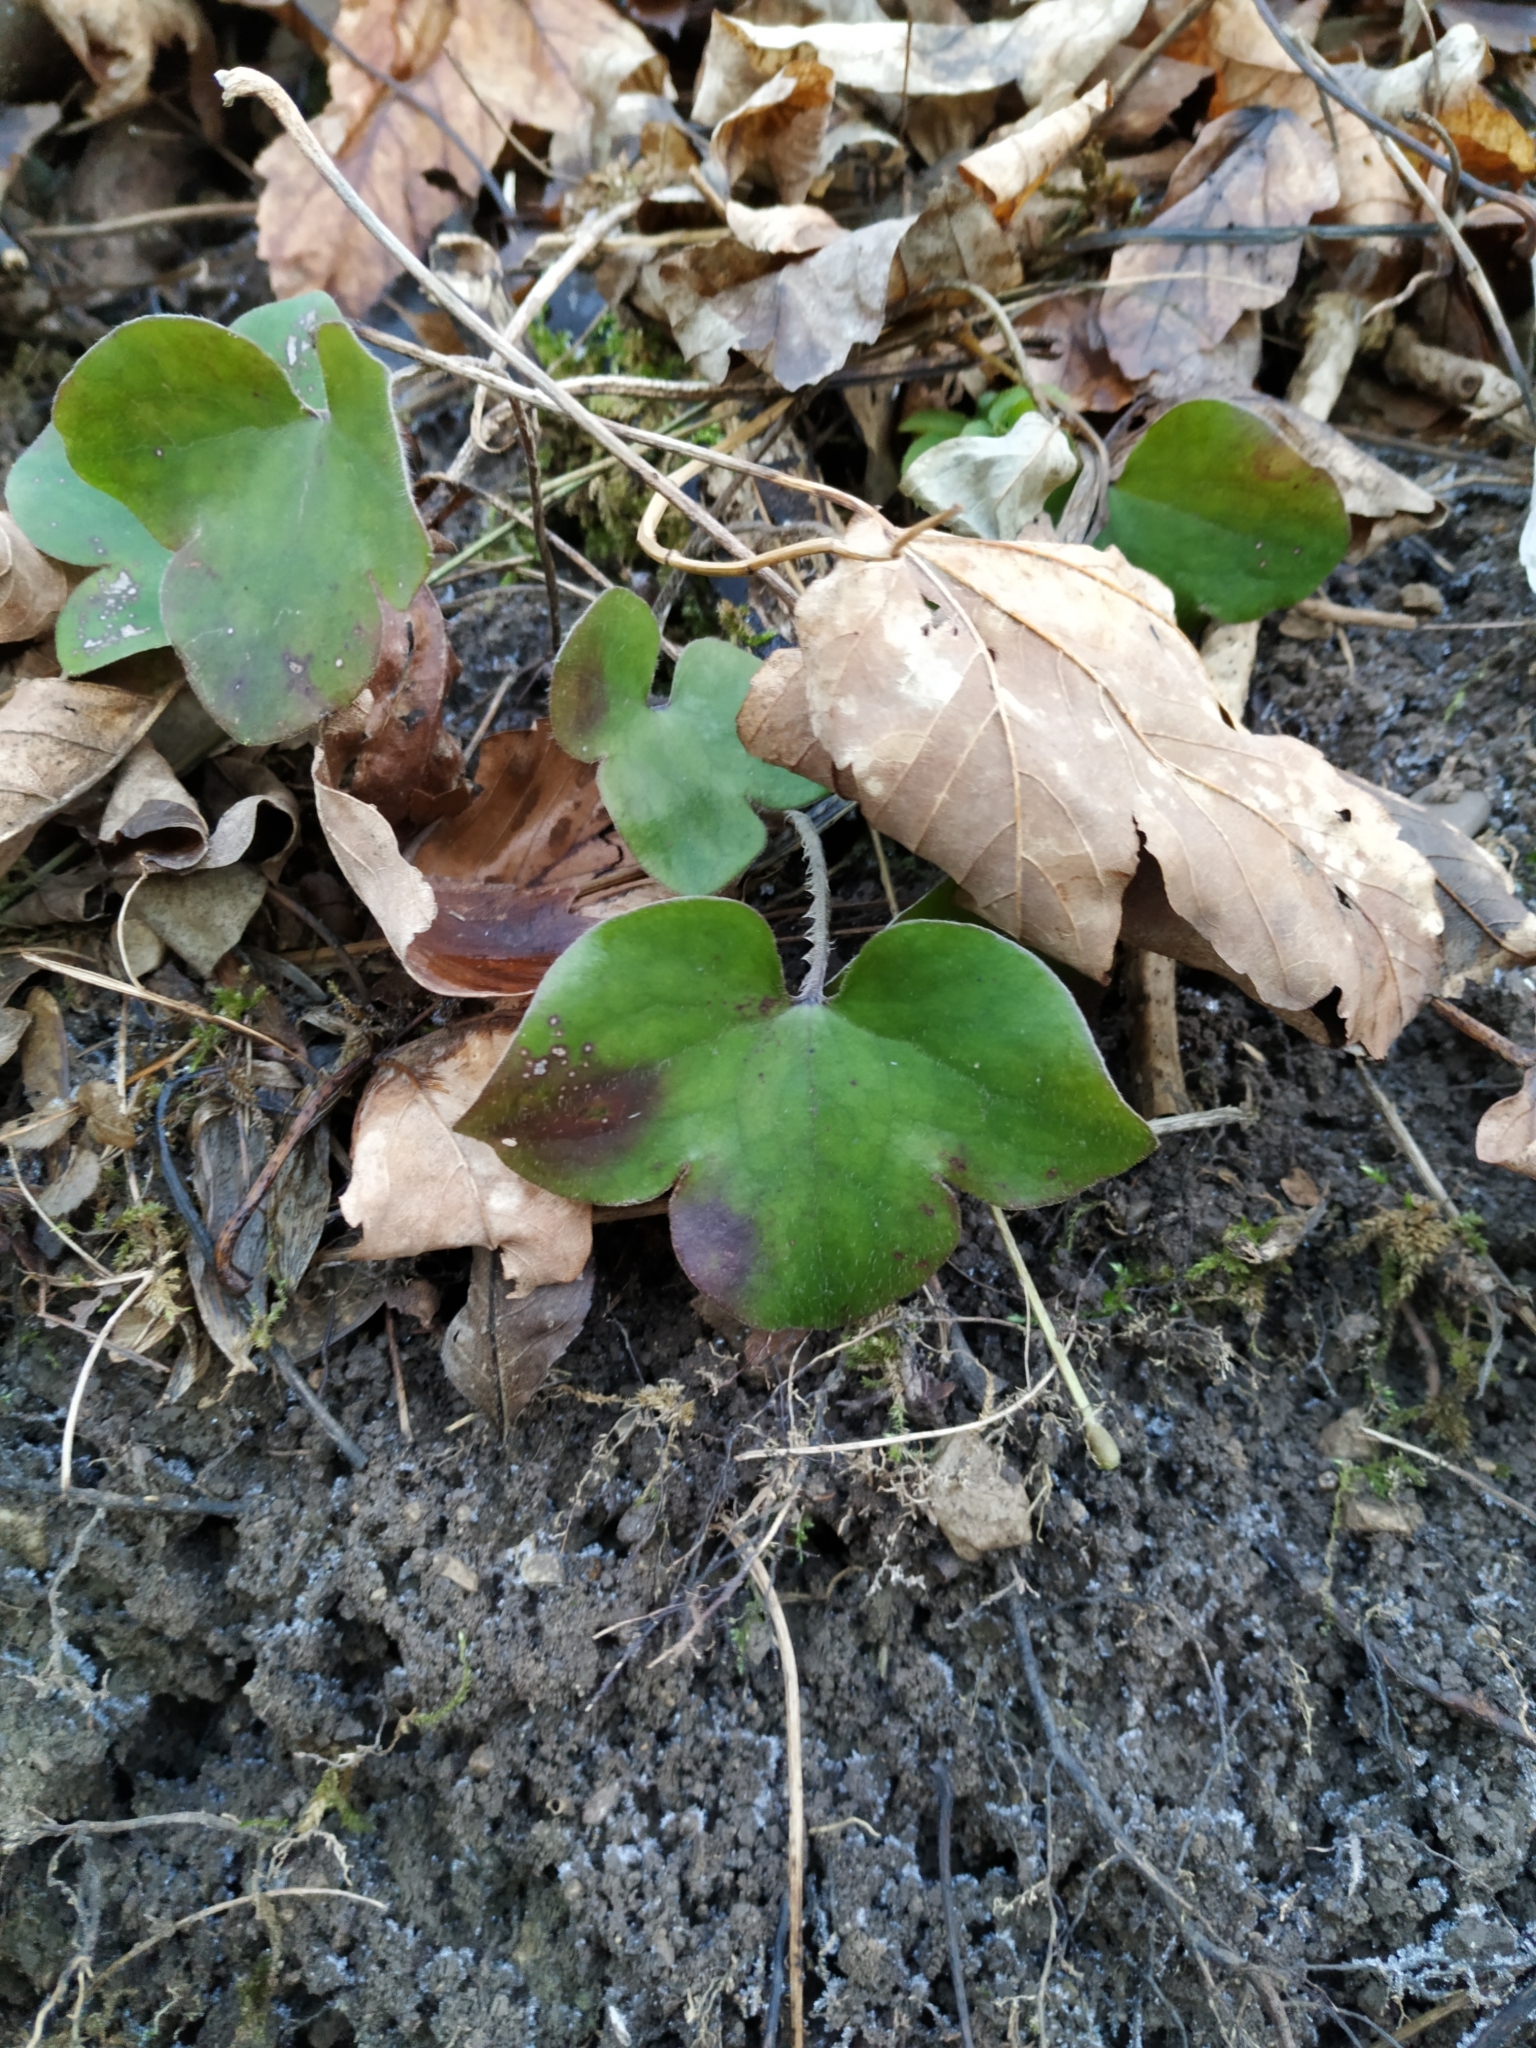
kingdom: Plantae
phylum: Tracheophyta
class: Magnoliopsida
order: Ranunculales
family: Ranunculaceae
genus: Hepatica
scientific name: Hepatica nobilis
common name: Liverleaf
